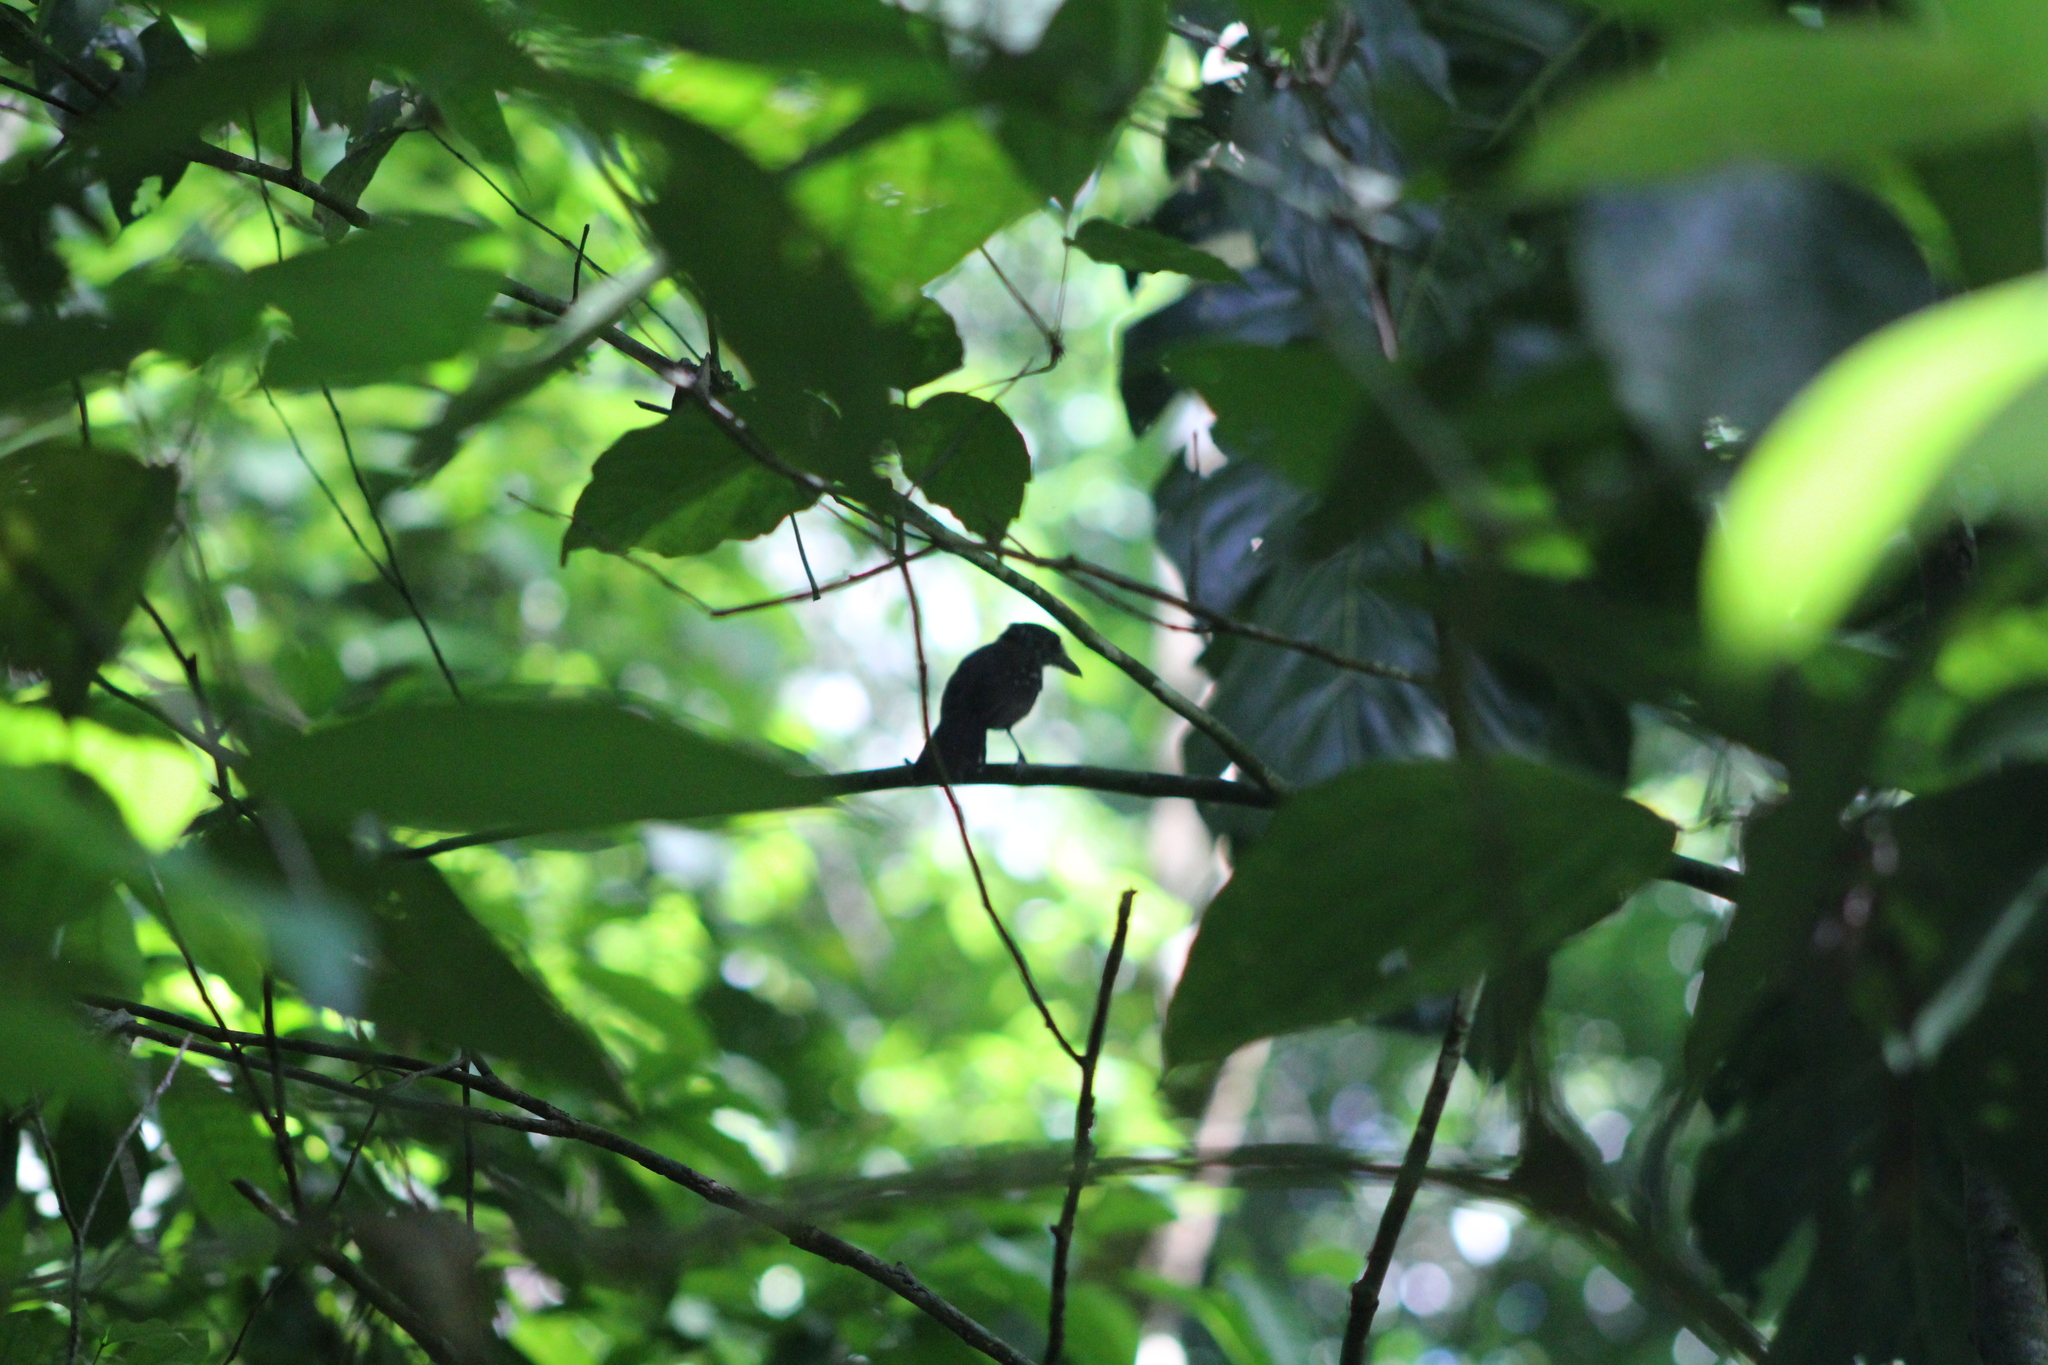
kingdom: Animalia
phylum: Chordata
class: Aves
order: Passeriformes
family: Thamnophilidae
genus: Thamnophilus
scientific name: Thamnophilus bridgesi
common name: Black-hooded antshrike
